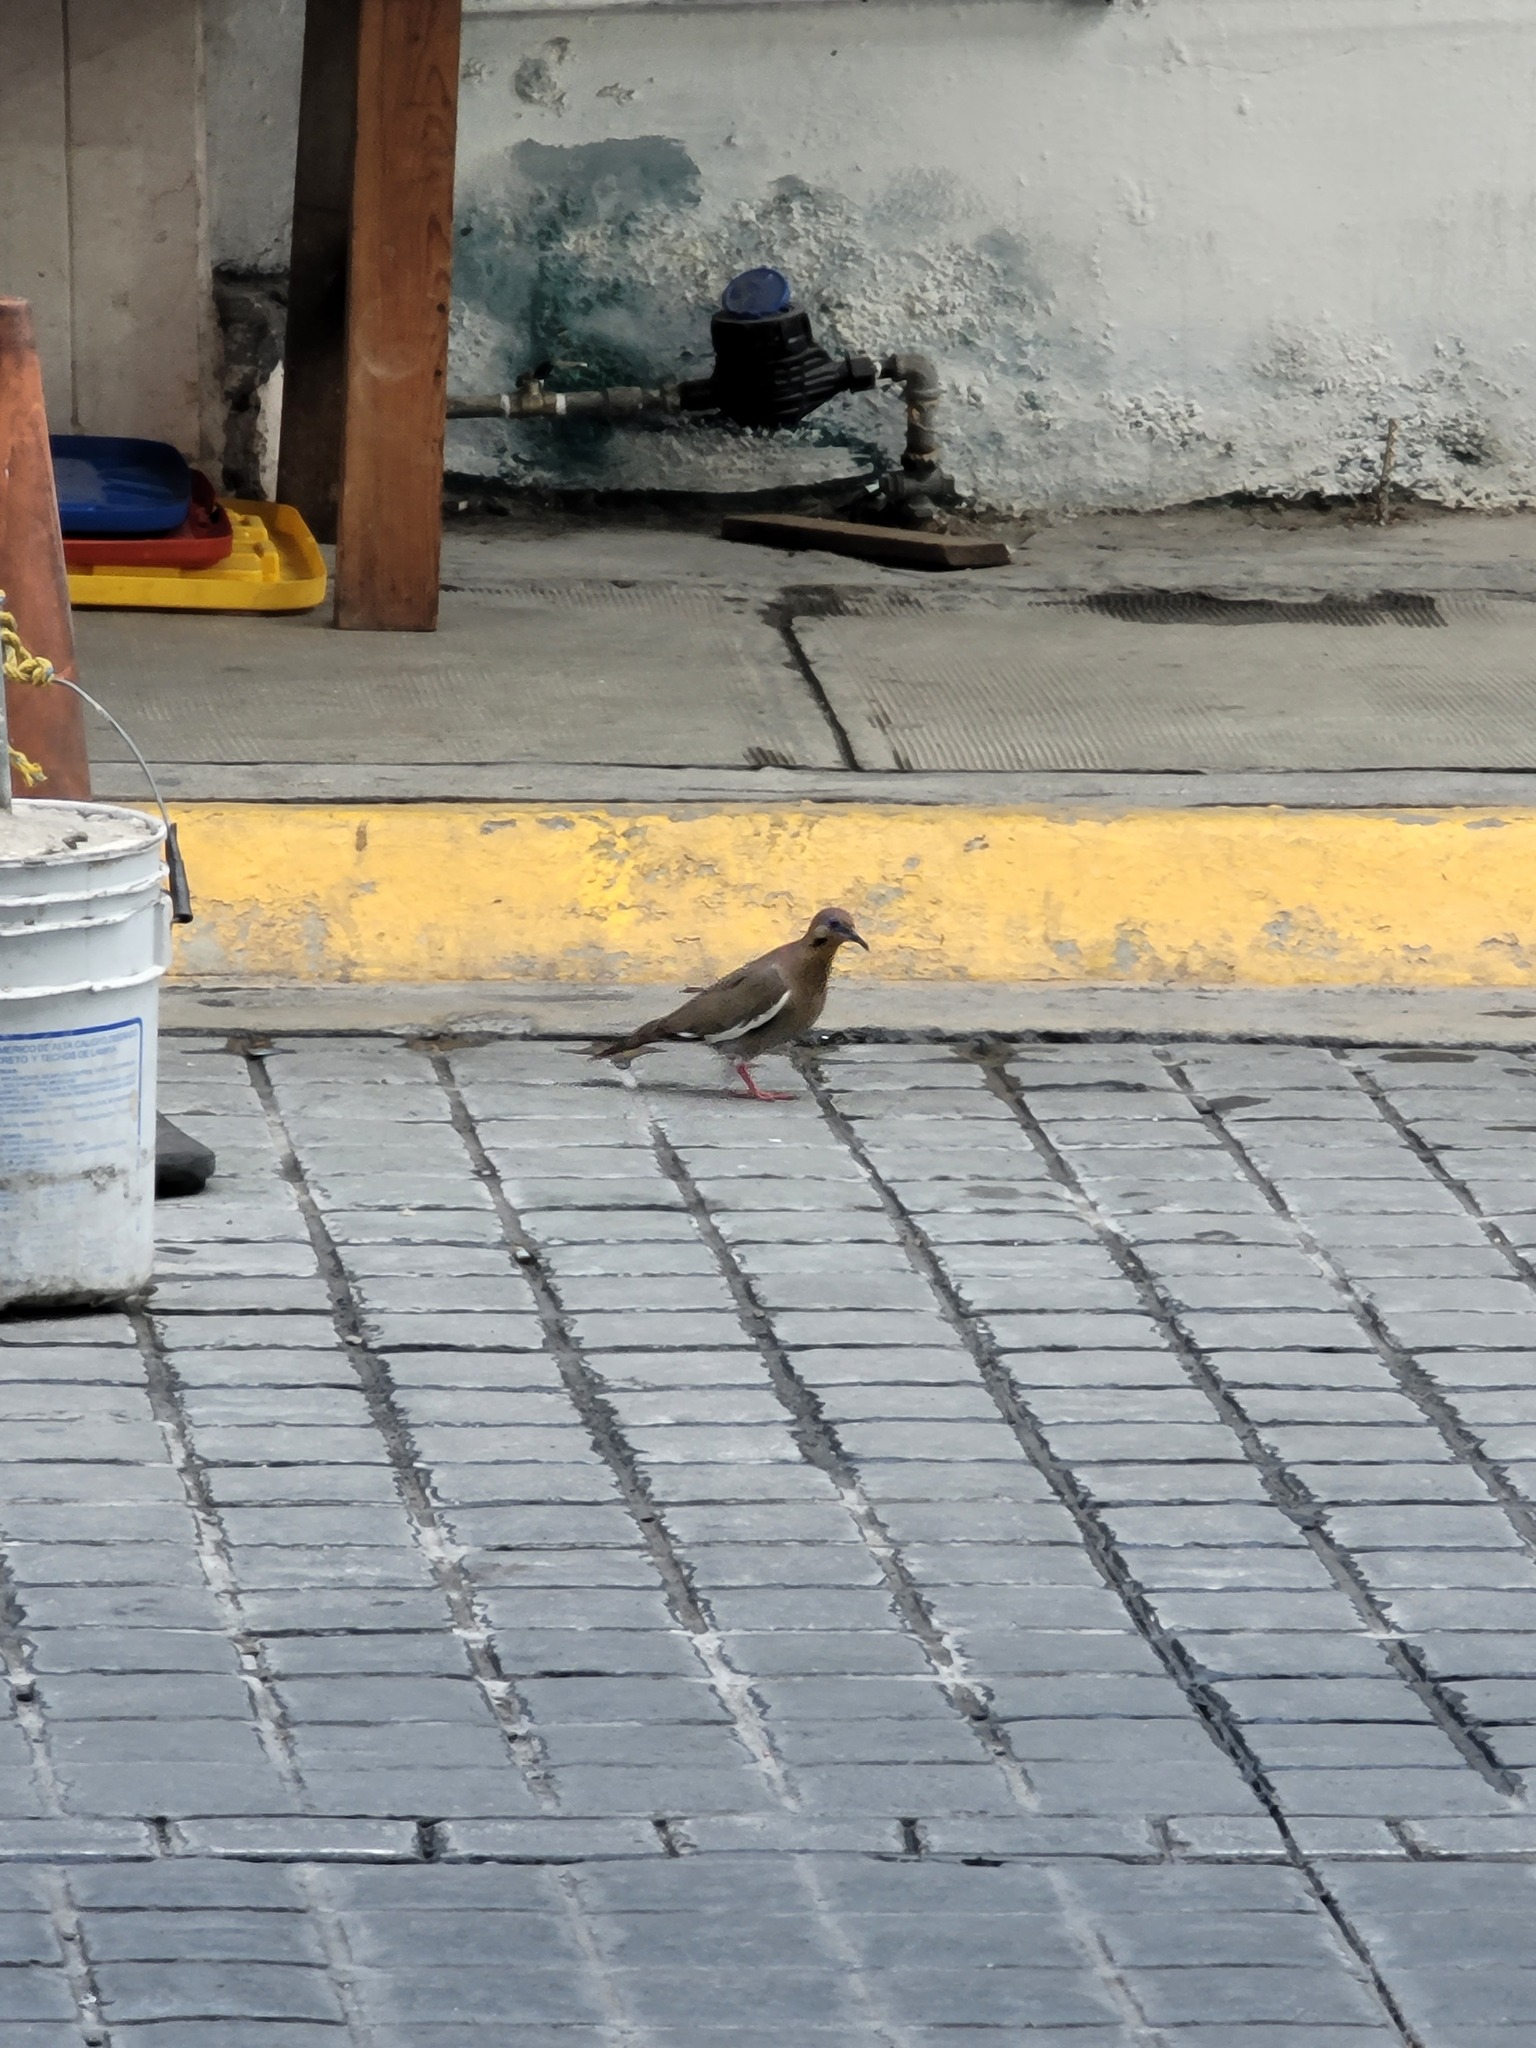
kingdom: Animalia
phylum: Chordata
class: Aves
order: Columbiformes
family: Columbidae
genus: Zenaida
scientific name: Zenaida asiatica
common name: White-winged dove
